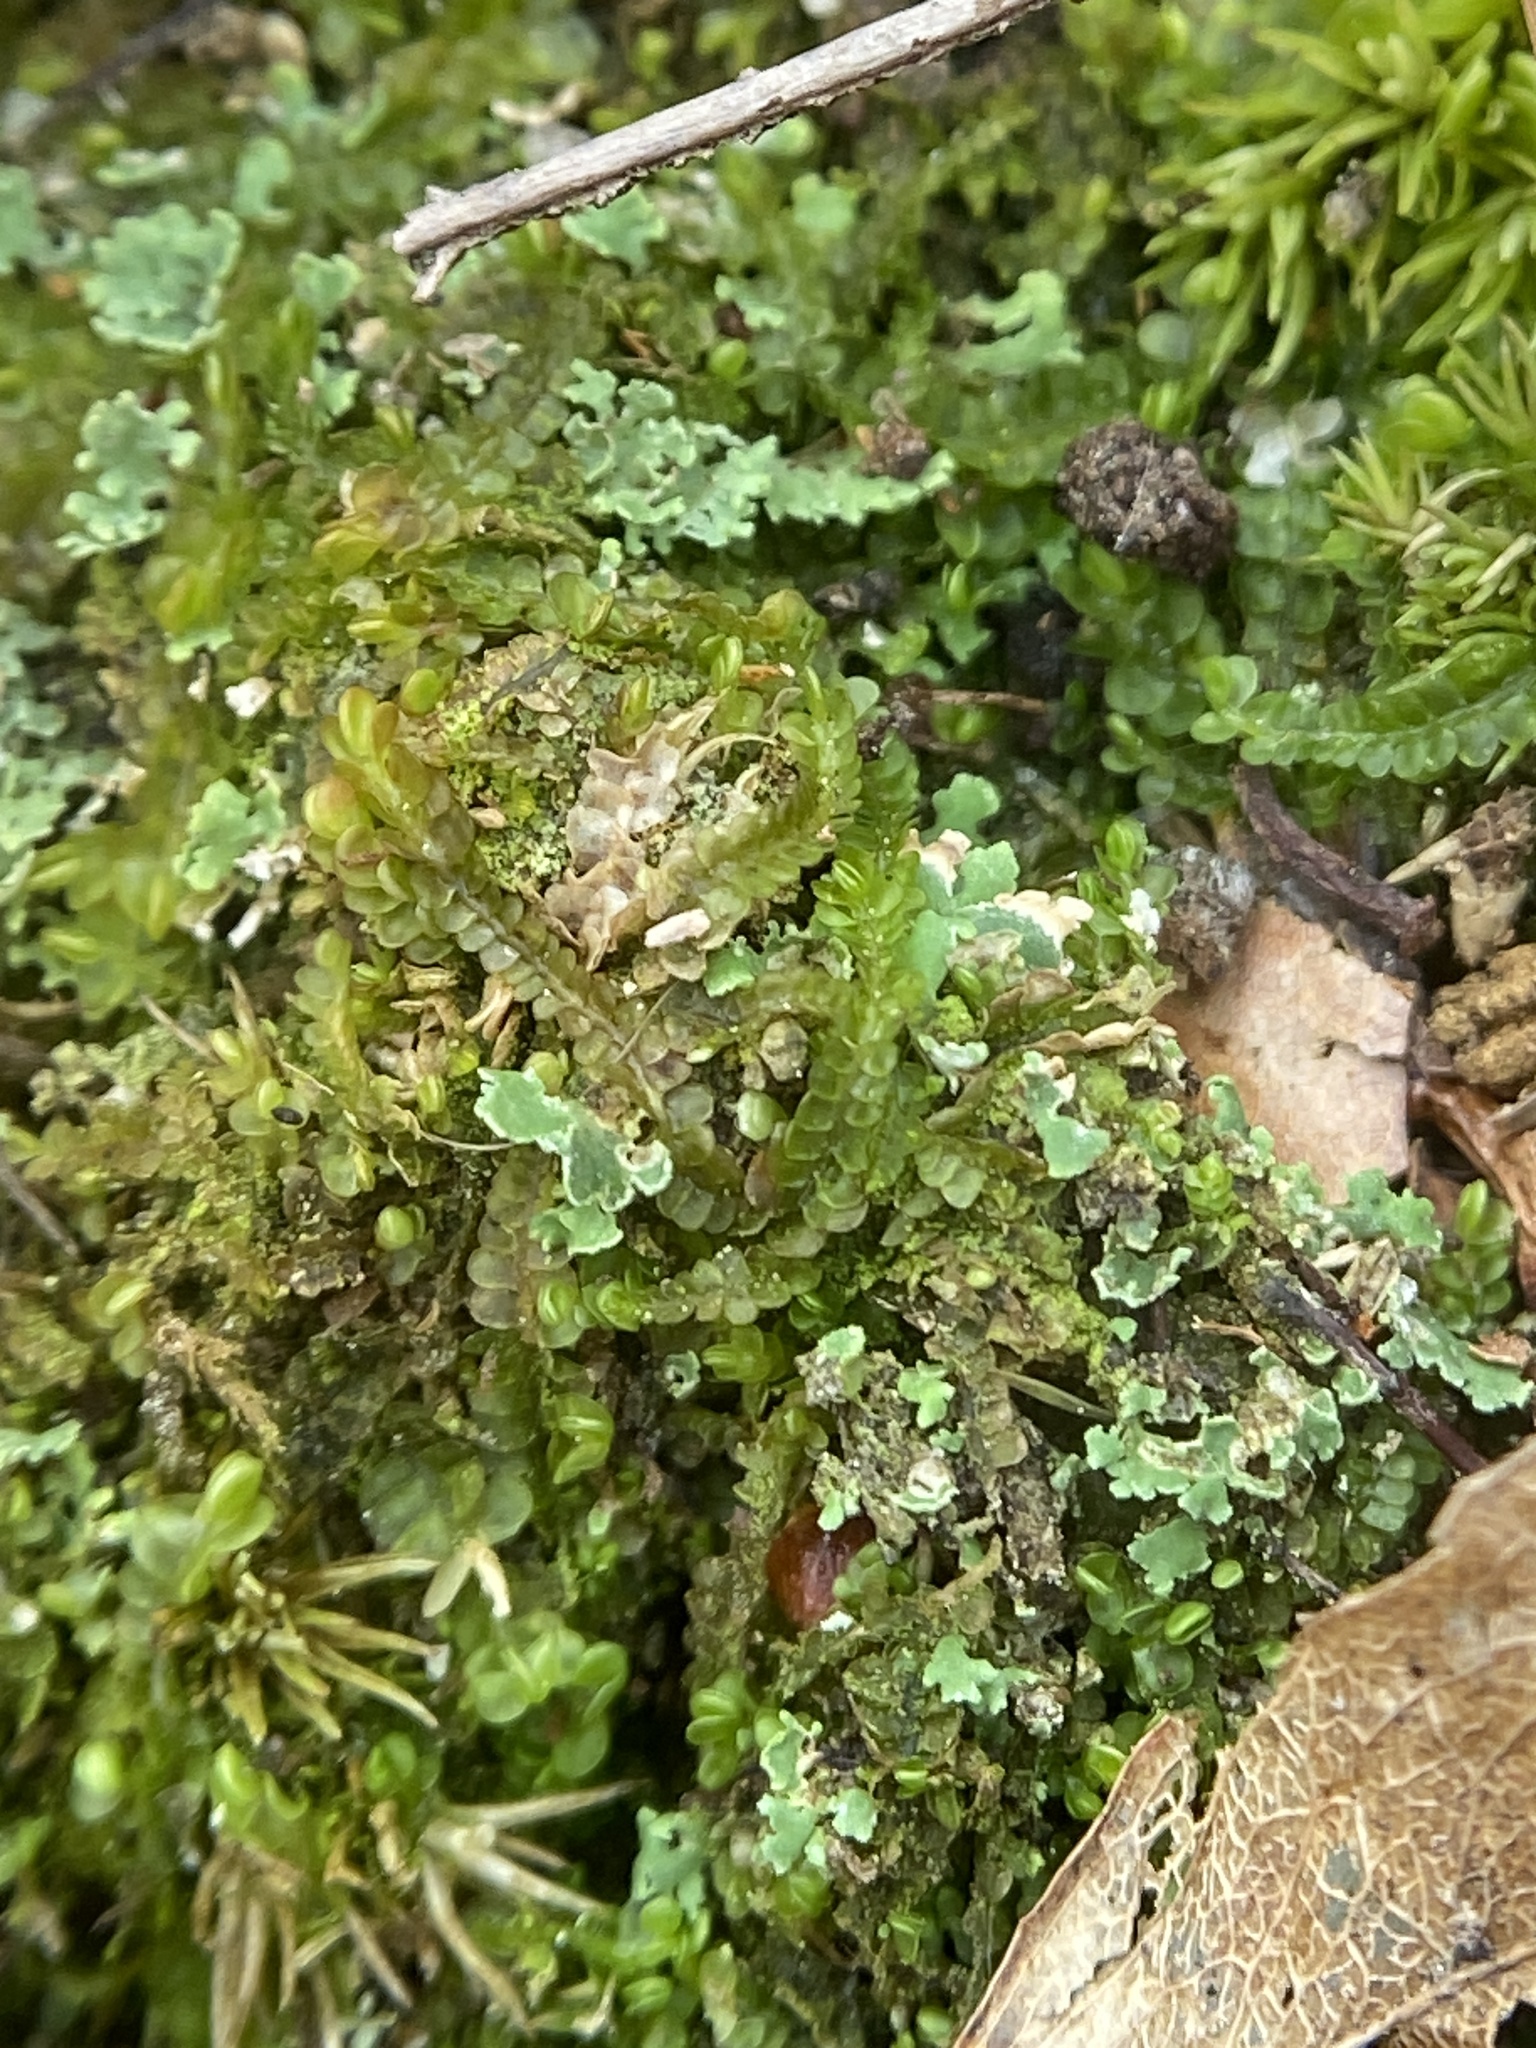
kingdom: Plantae
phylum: Marchantiophyta
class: Jungermanniopsida
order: Jungermanniales
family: Cephaloziaceae
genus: Odontoschisma
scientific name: Odontoschisma sphagni
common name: Bog-moss flapwort
